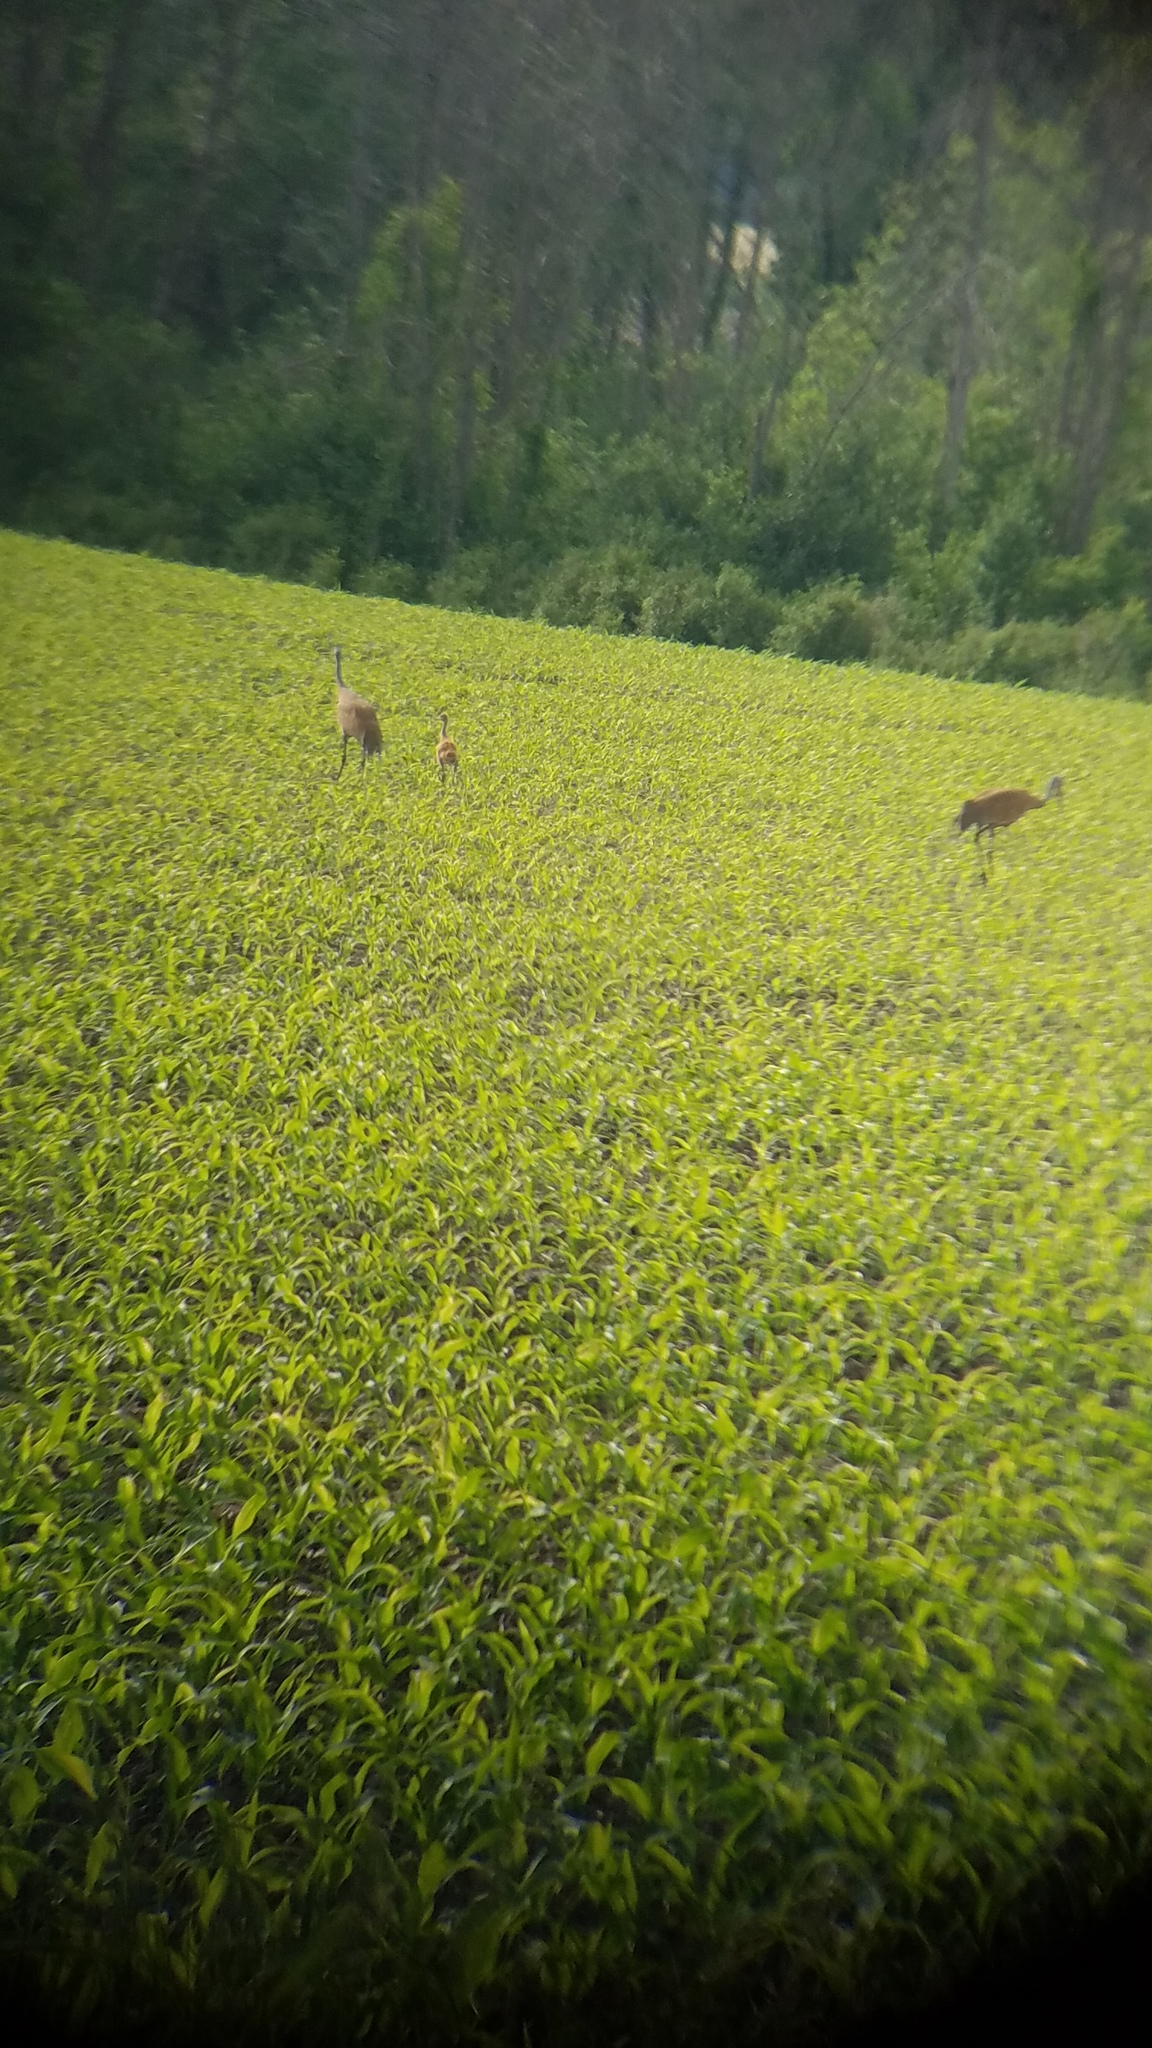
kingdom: Animalia
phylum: Chordata
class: Aves
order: Gruiformes
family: Gruidae
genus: Grus
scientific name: Grus canadensis
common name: Sandhill crane
